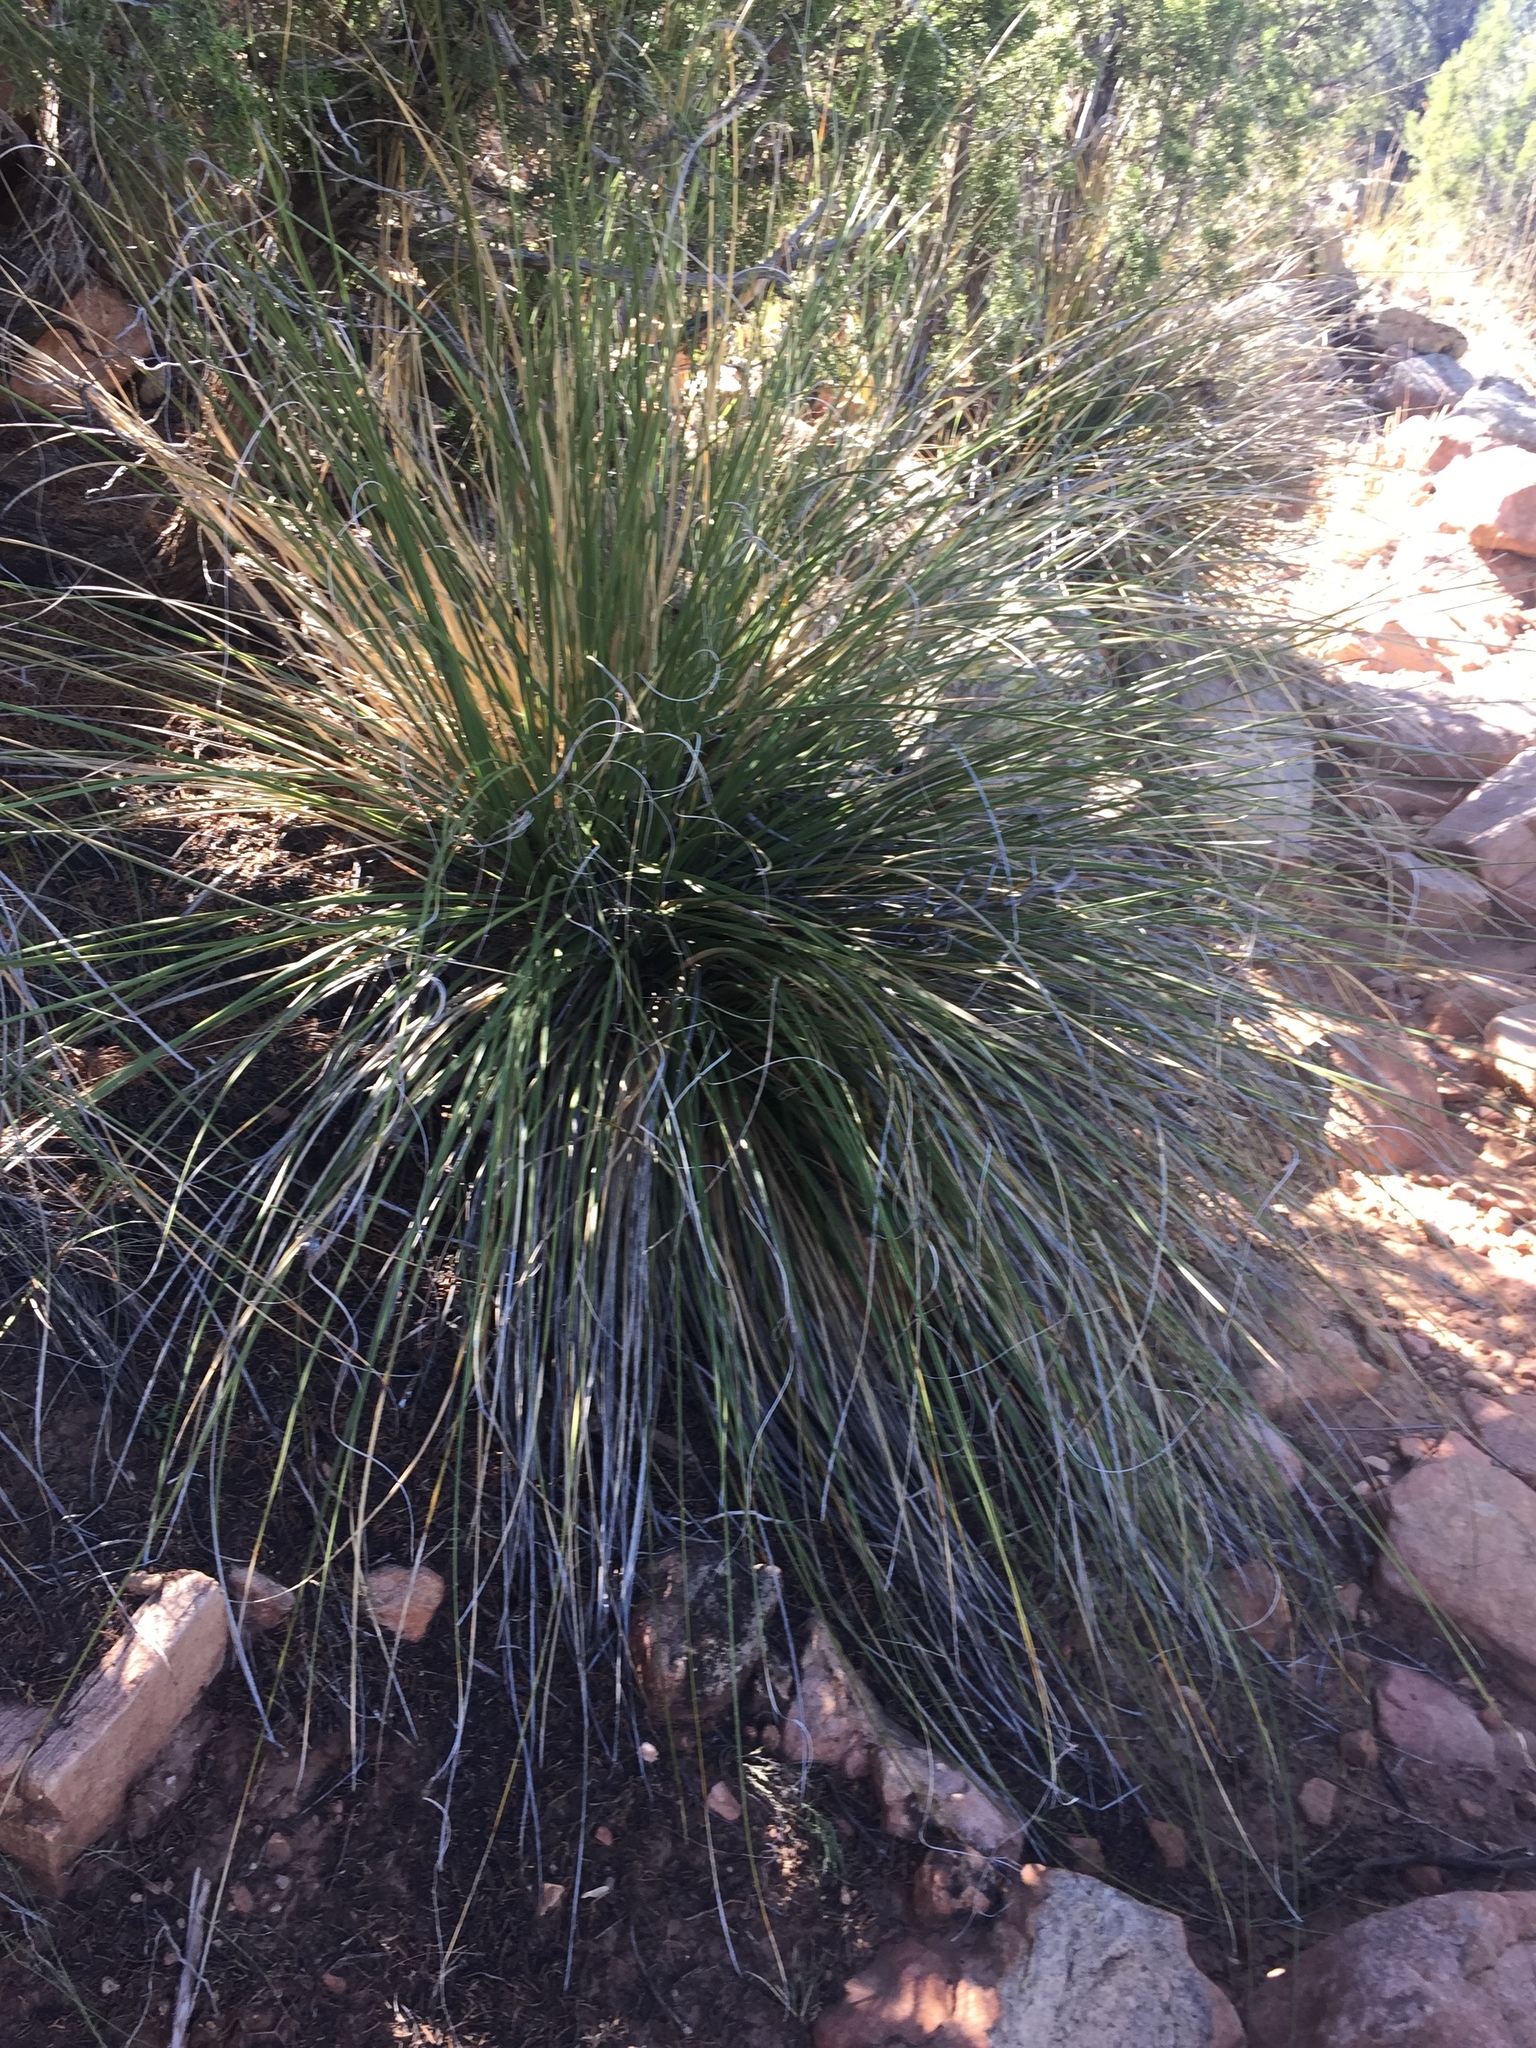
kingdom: Plantae
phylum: Tracheophyta
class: Liliopsida
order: Asparagales
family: Asparagaceae
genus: Nolina
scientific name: Nolina greenei
